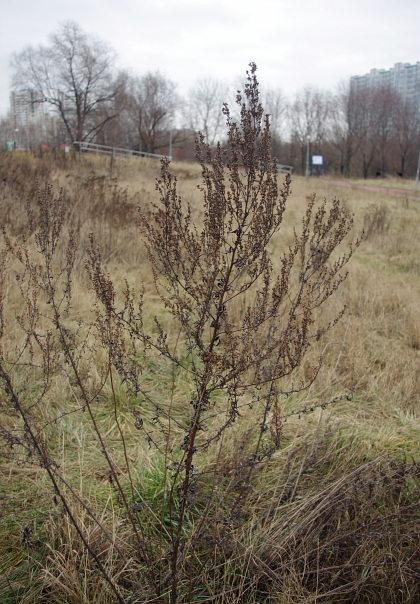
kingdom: Plantae
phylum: Tracheophyta
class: Magnoliopsida
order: Asterales
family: Asteraceae
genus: Artemisia
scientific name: Artemisia vulgaris
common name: Mugwort
